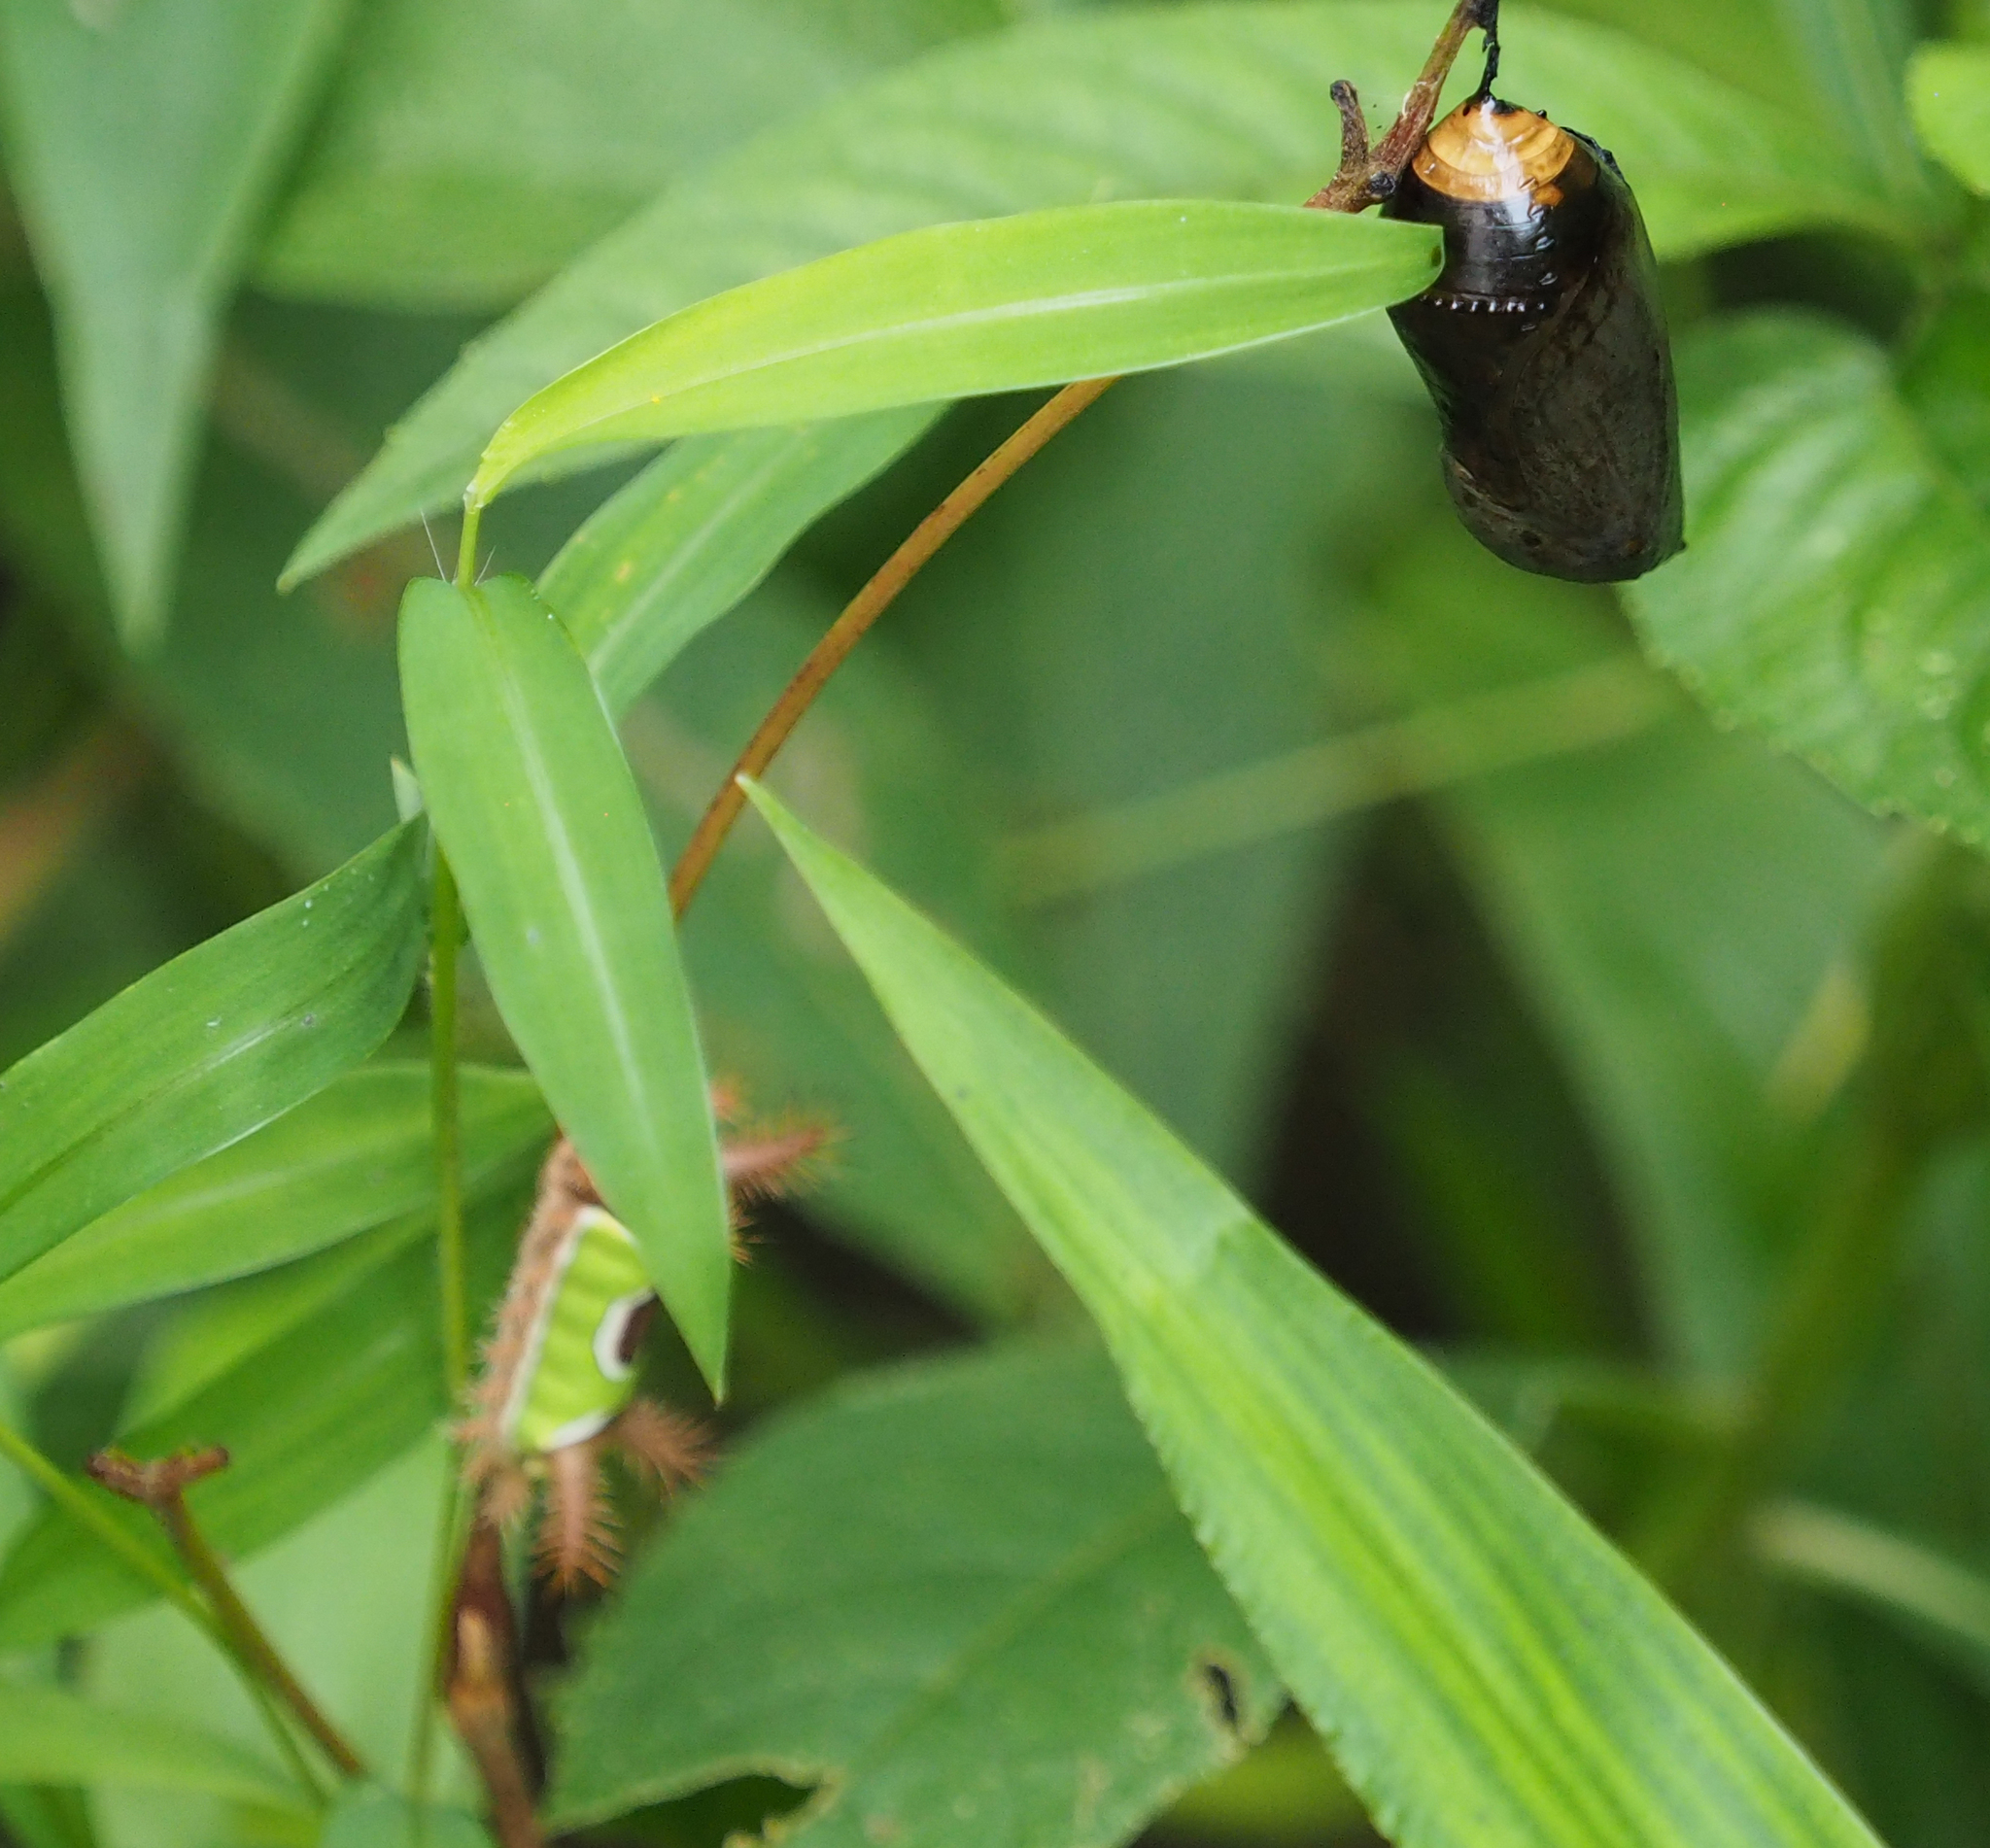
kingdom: Animalia
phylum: Arthropoda
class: Insecta
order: Lepidoptera
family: Limacodidae
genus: Acharia
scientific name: Acharia stimulea
